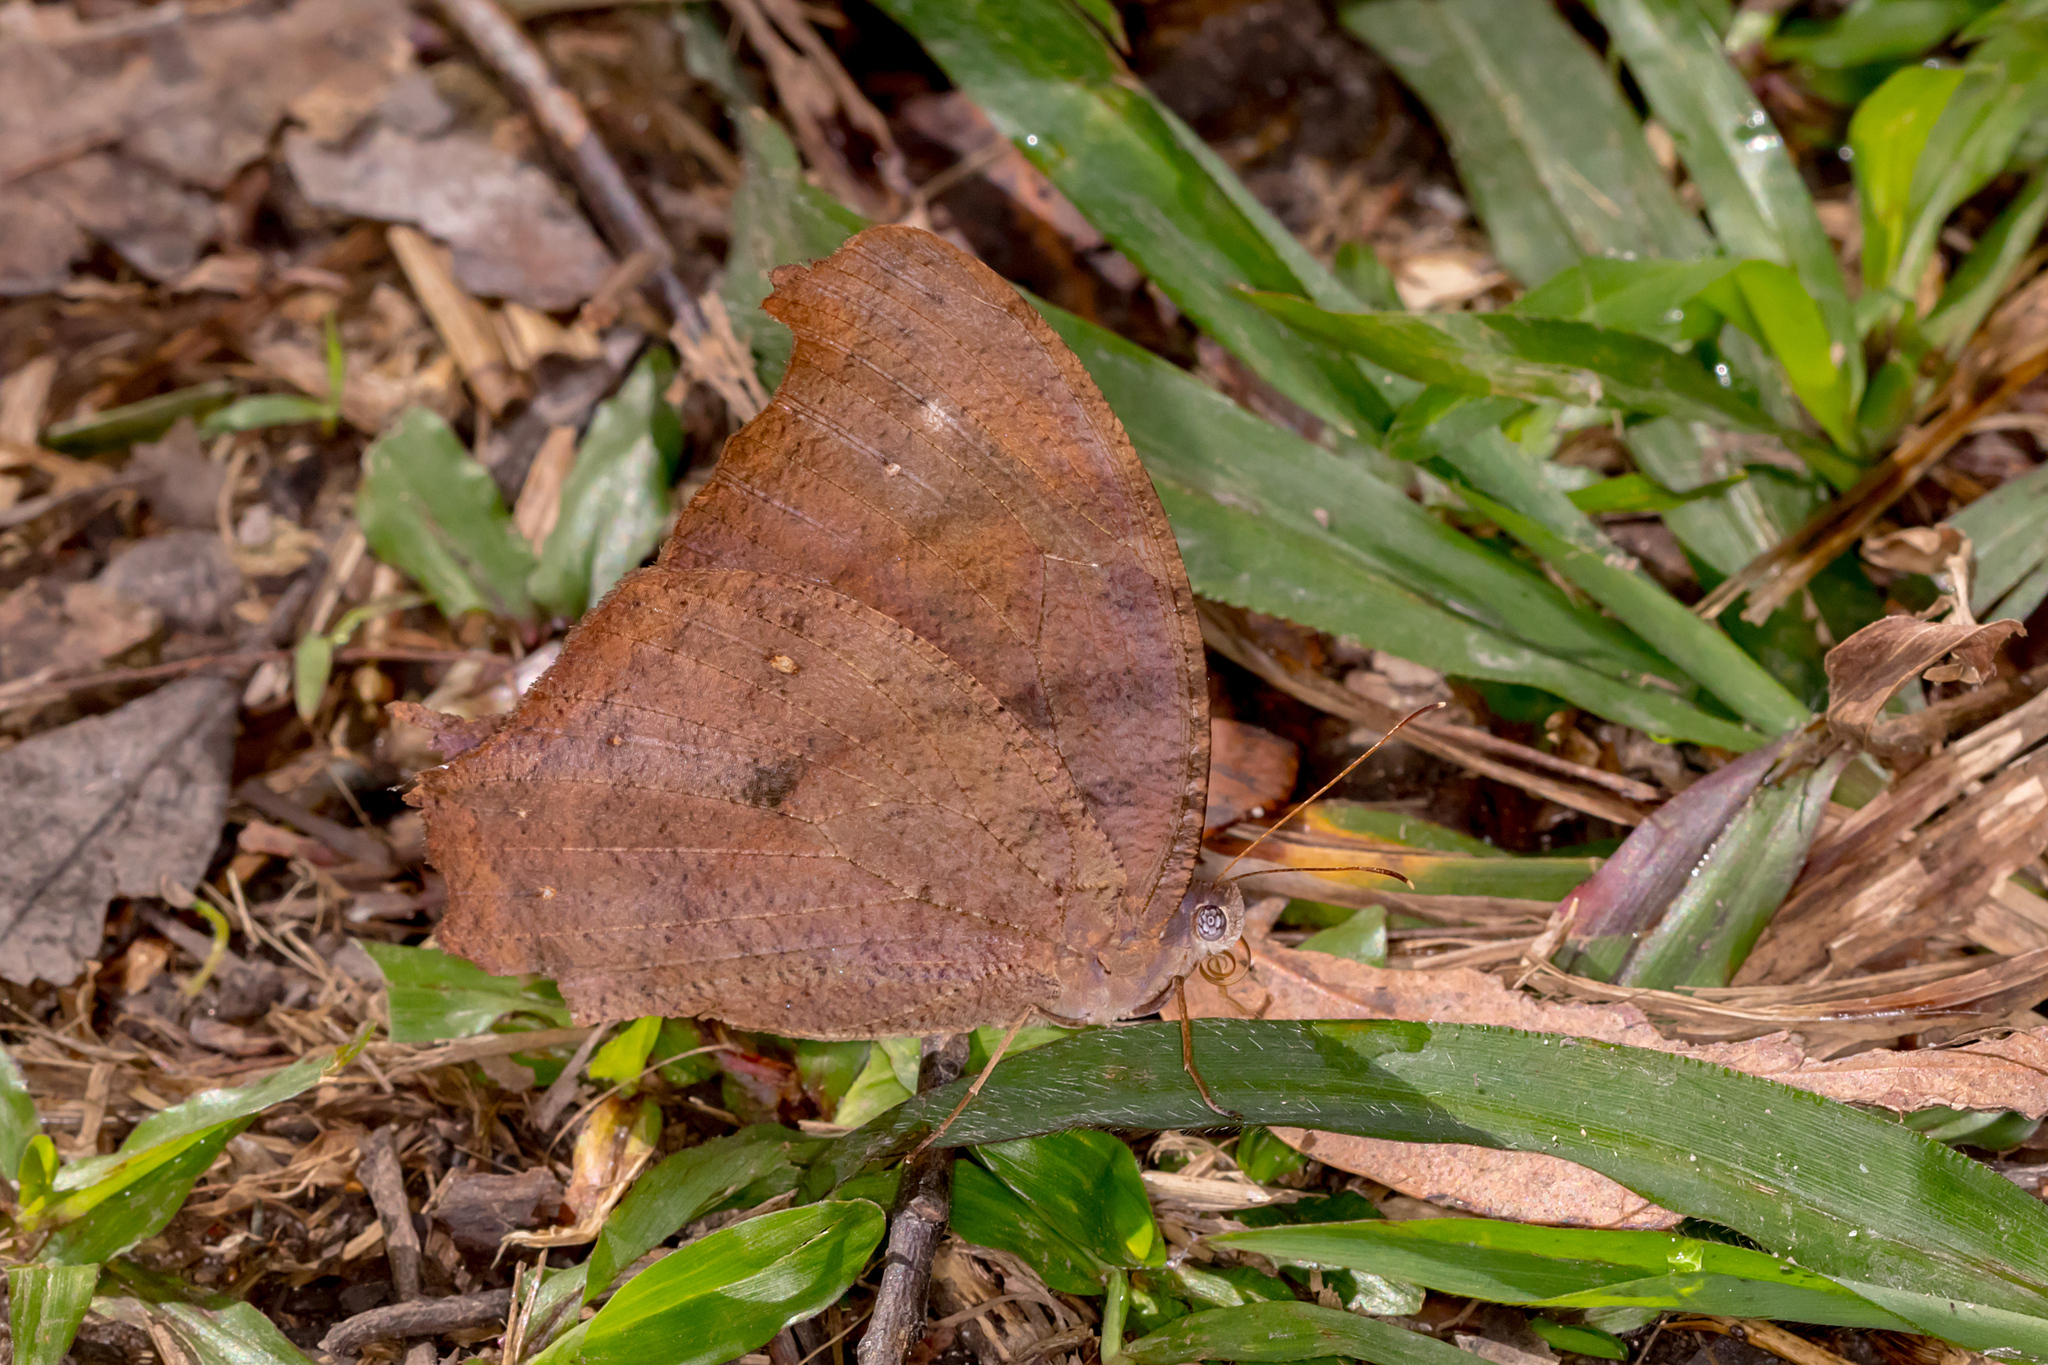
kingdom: Animalia
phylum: Arthropoda
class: Insecta
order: Lepidoptera
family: Nymphalidae
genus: Melanitis
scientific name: Melanitis leda
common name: Twilight brown
